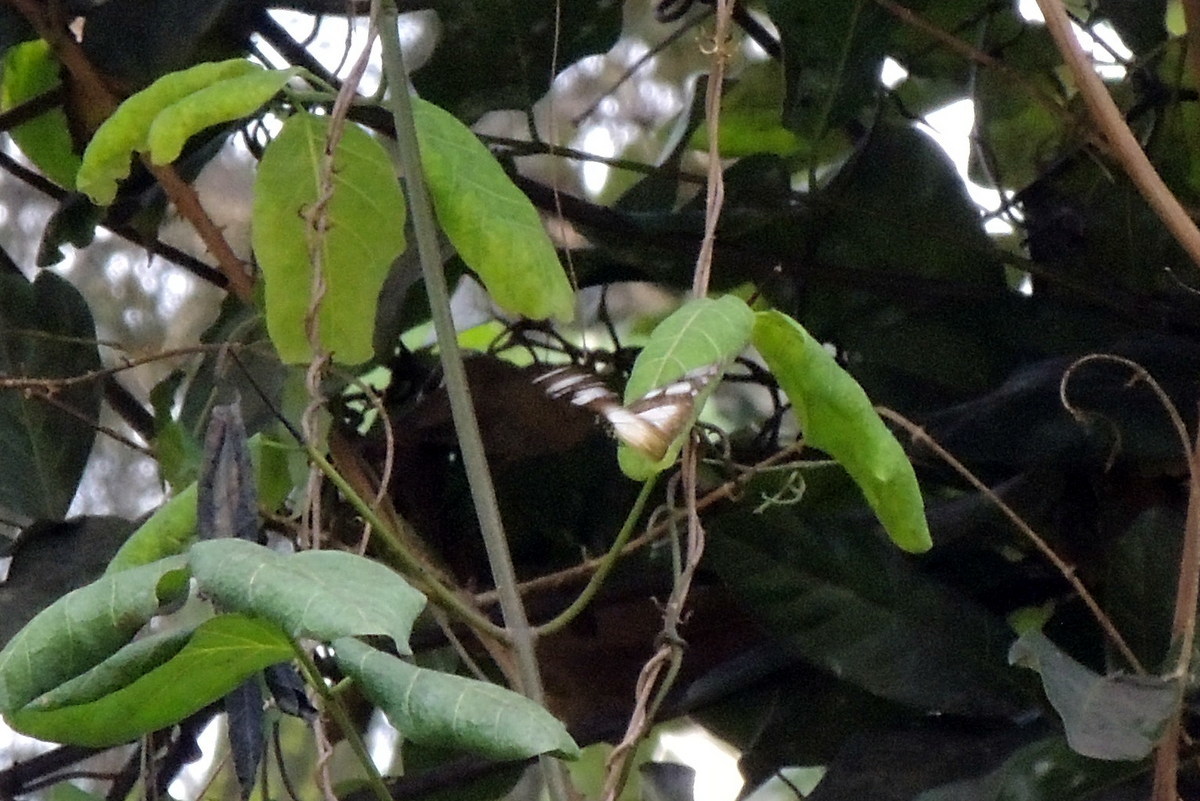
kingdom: Animalia
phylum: Arthropoda
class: Insecta
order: Lepidoptera
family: Nymphalidae
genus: Amauris
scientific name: Amauris damocles
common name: Small monk
